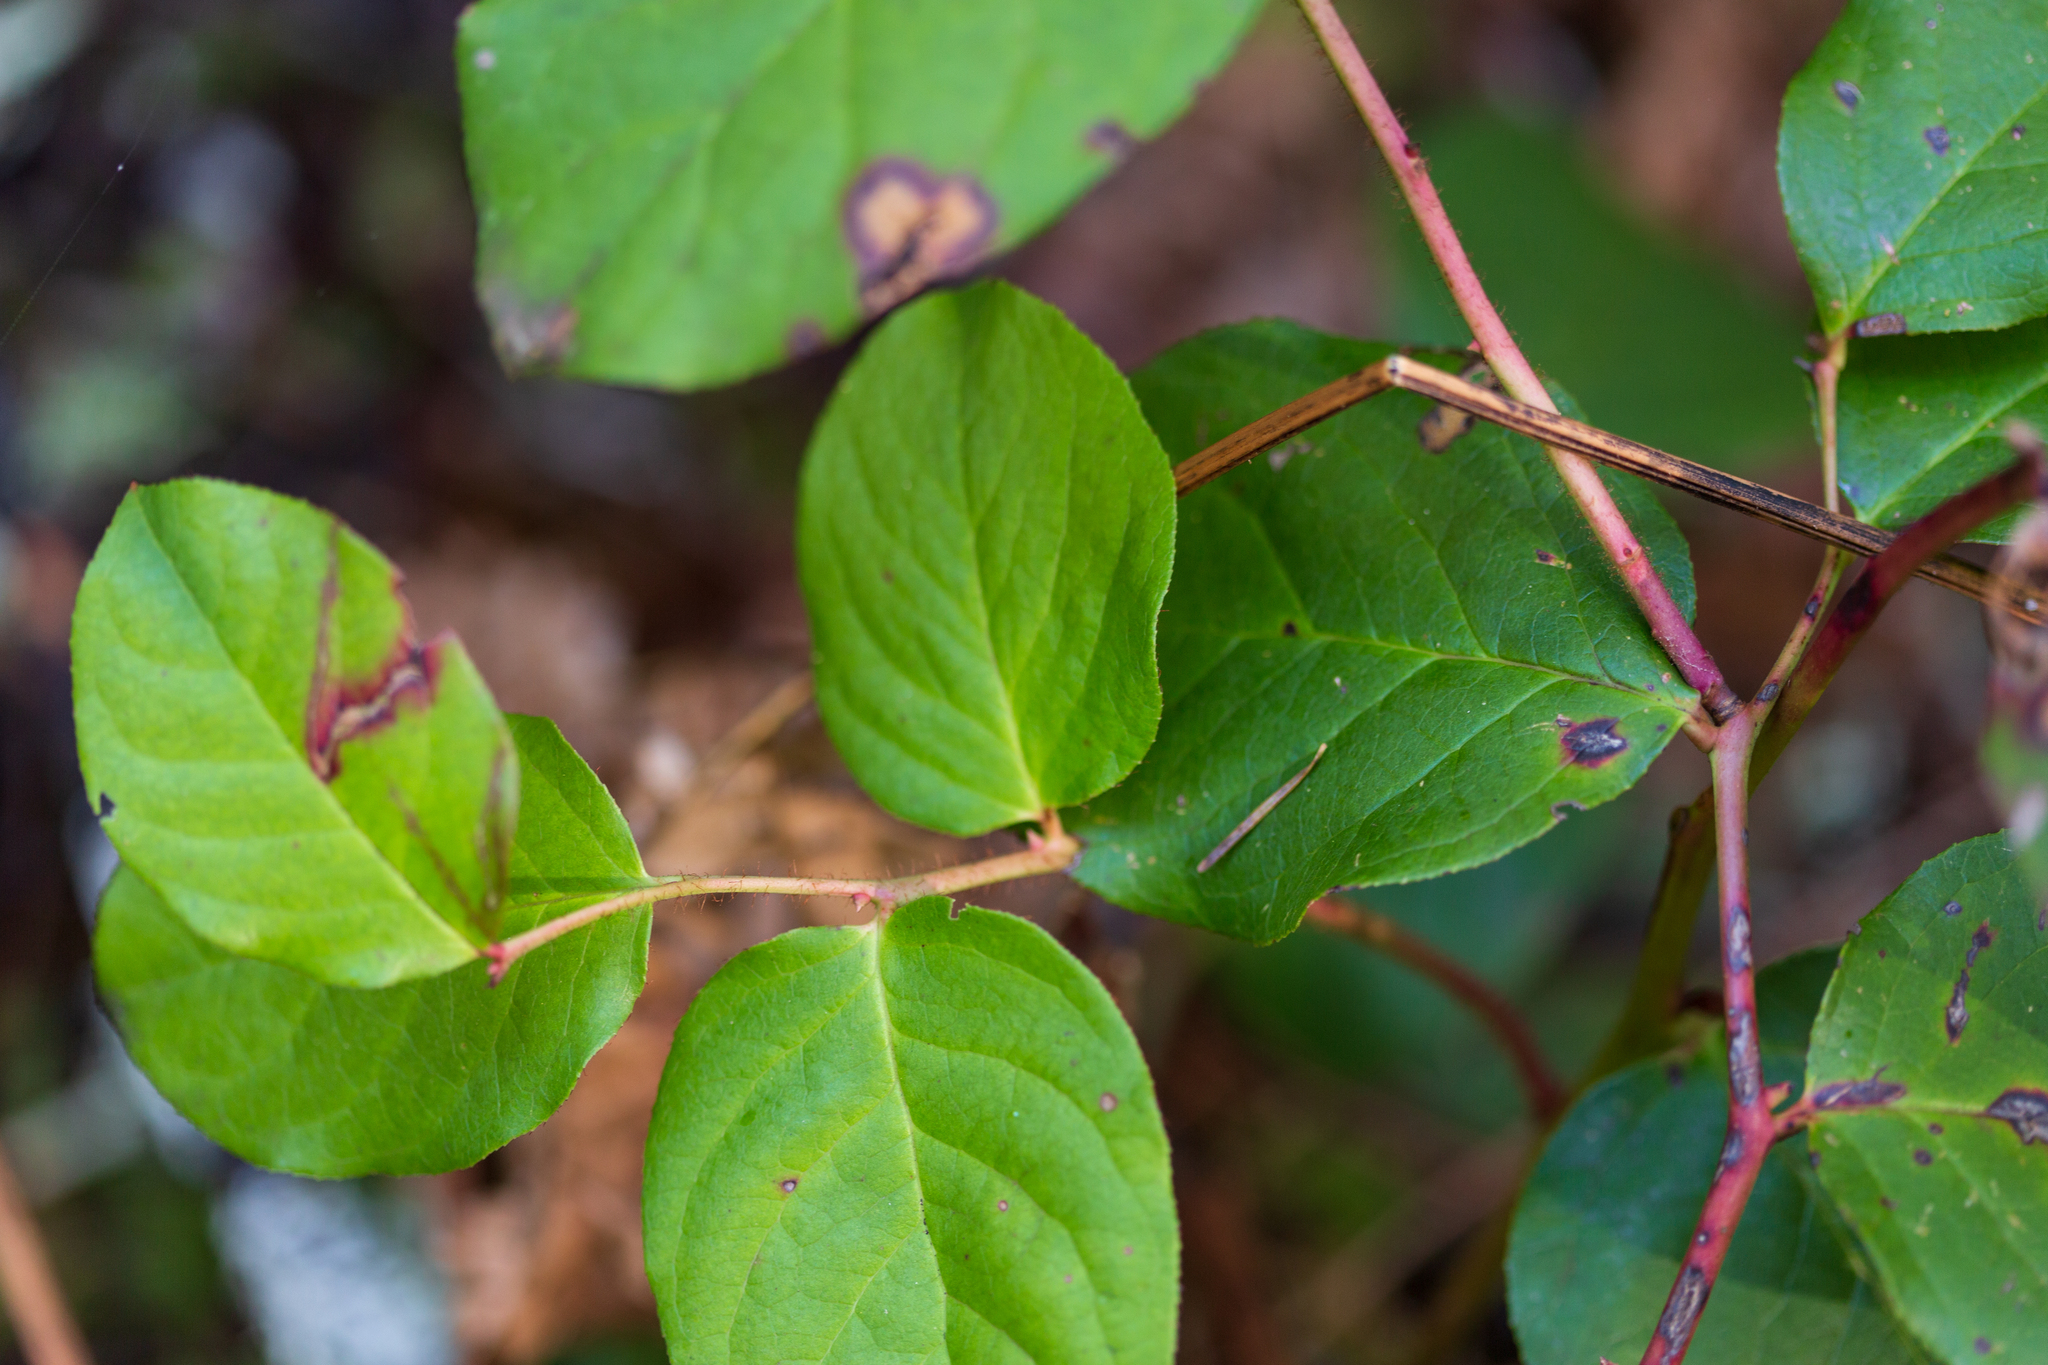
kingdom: Plantae
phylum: Tracheophyta
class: Magnoliopsida
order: Ericales
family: Ericaceae
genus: Gaultheria
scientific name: Gaultheria shallon
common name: Shallon
